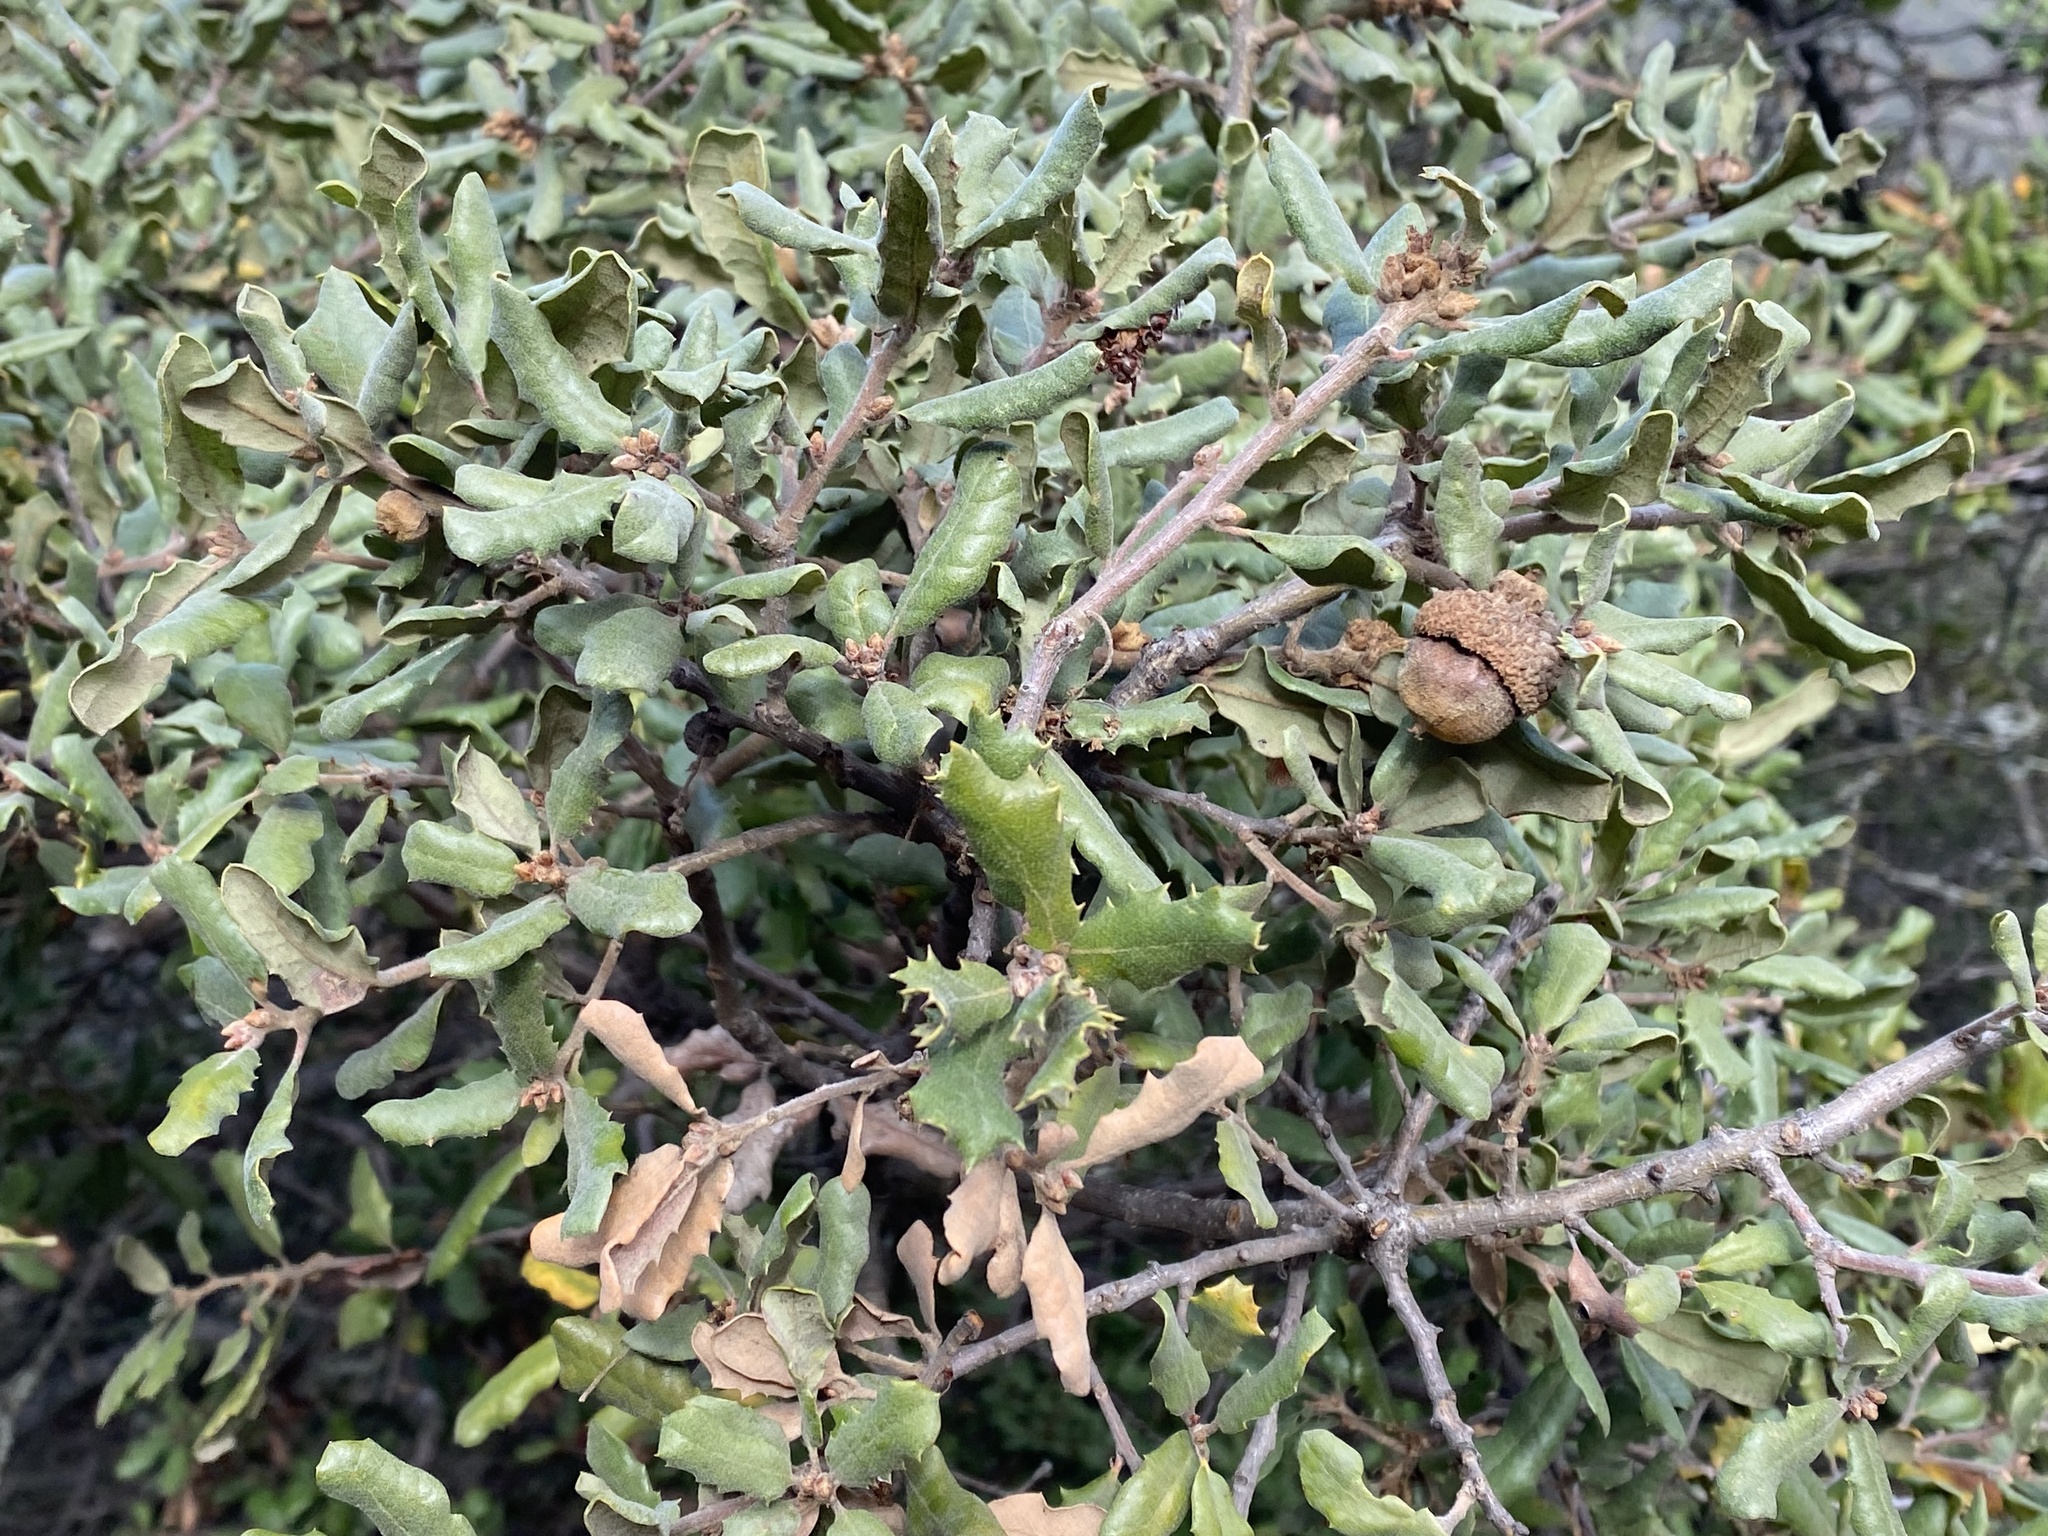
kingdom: Plantae
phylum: Tracheophyta
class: Magnoliopsida
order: Fagales
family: Fagaceae
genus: Quercus
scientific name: Quercus durata
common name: Leather oak
